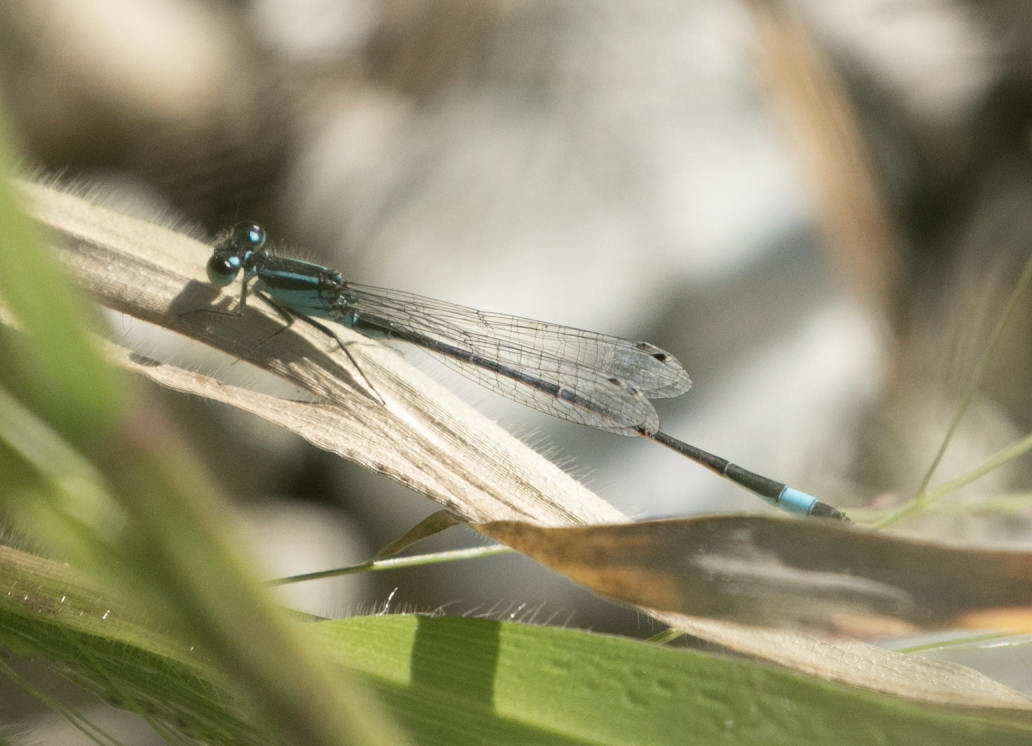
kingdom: Animalia
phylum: Arthropoda
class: Insecta
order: Odonata
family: Coenagrionidae
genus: Ischnura
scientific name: Ischnura elegans
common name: Blue-tailed damselfly
